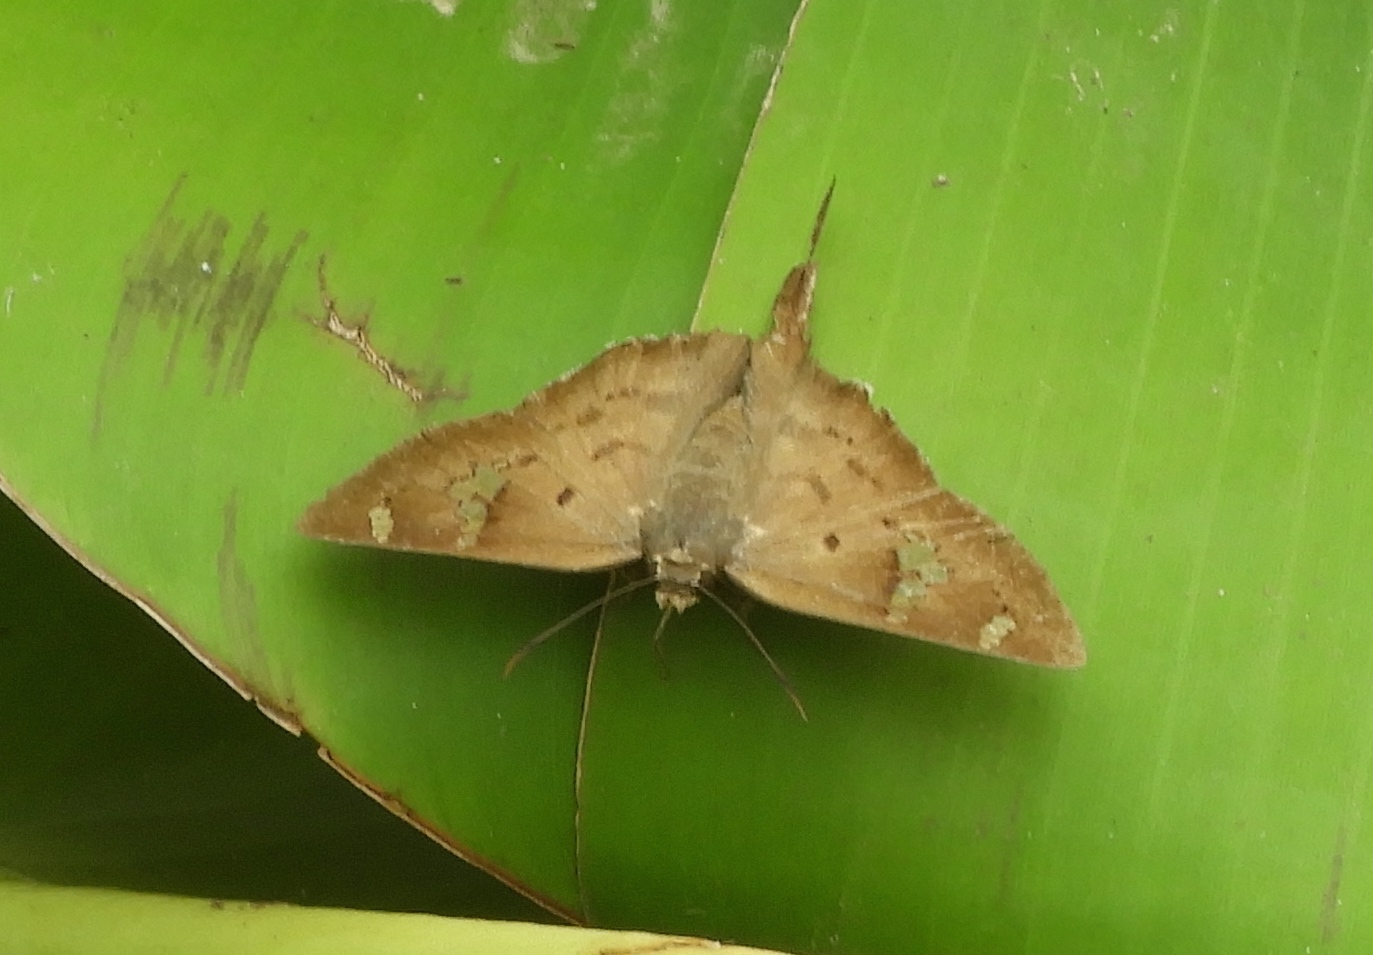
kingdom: Animalia
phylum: Arthropoda
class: Insecta
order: Lepidoptera
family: Hesperiidae
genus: Ectomis
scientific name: Ectomis
